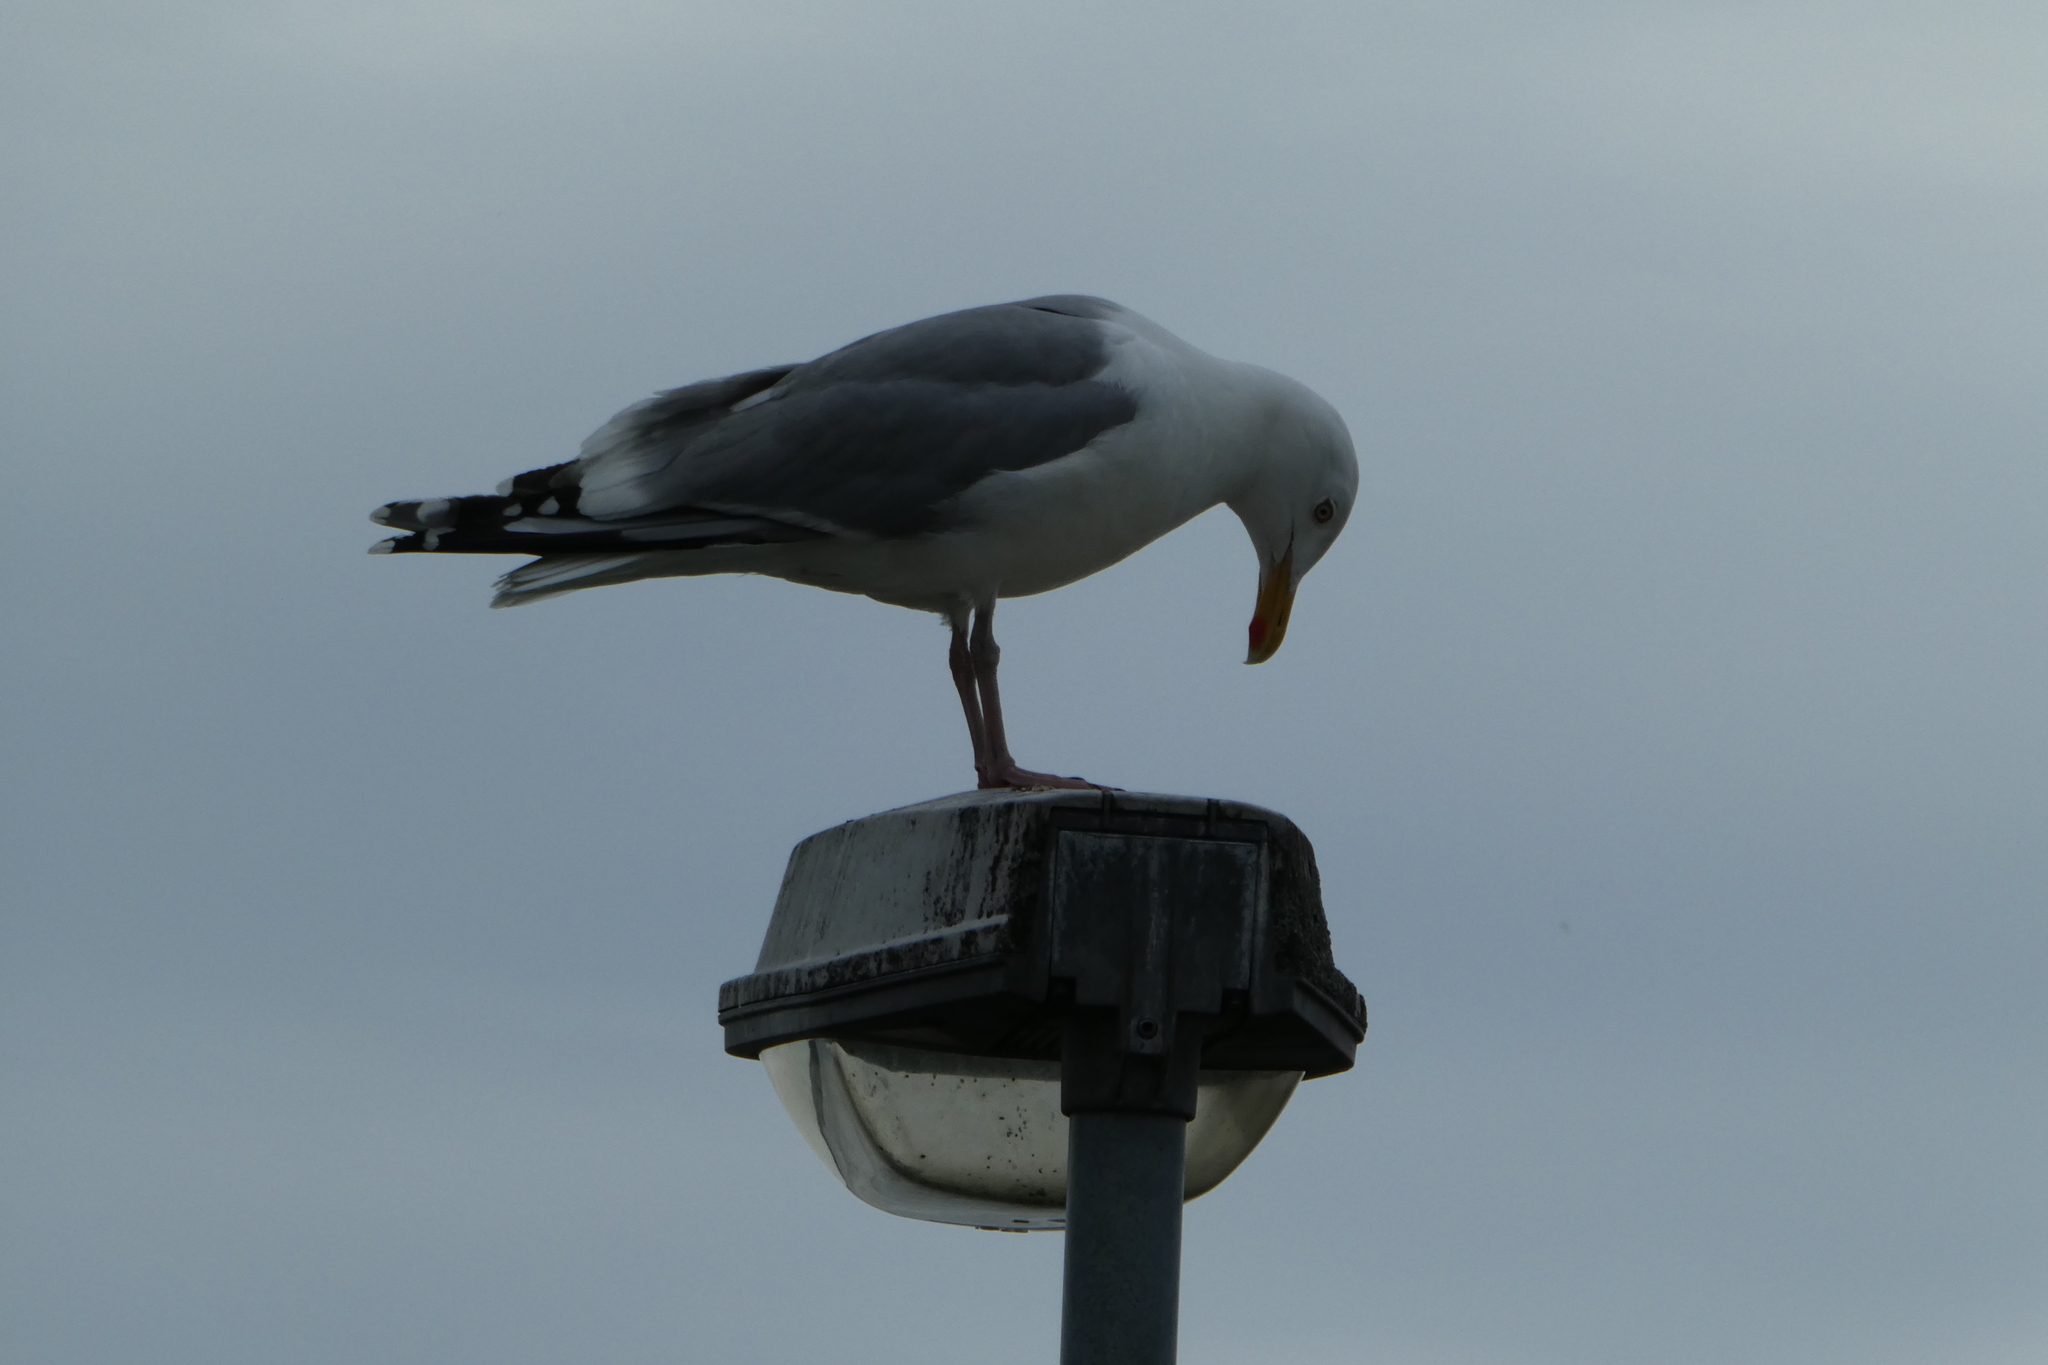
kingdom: Animalia
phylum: Chordata
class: Aves
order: Charadriiformes
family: Laridae
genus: Larus
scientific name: Larus argentatus
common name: Herring gull
